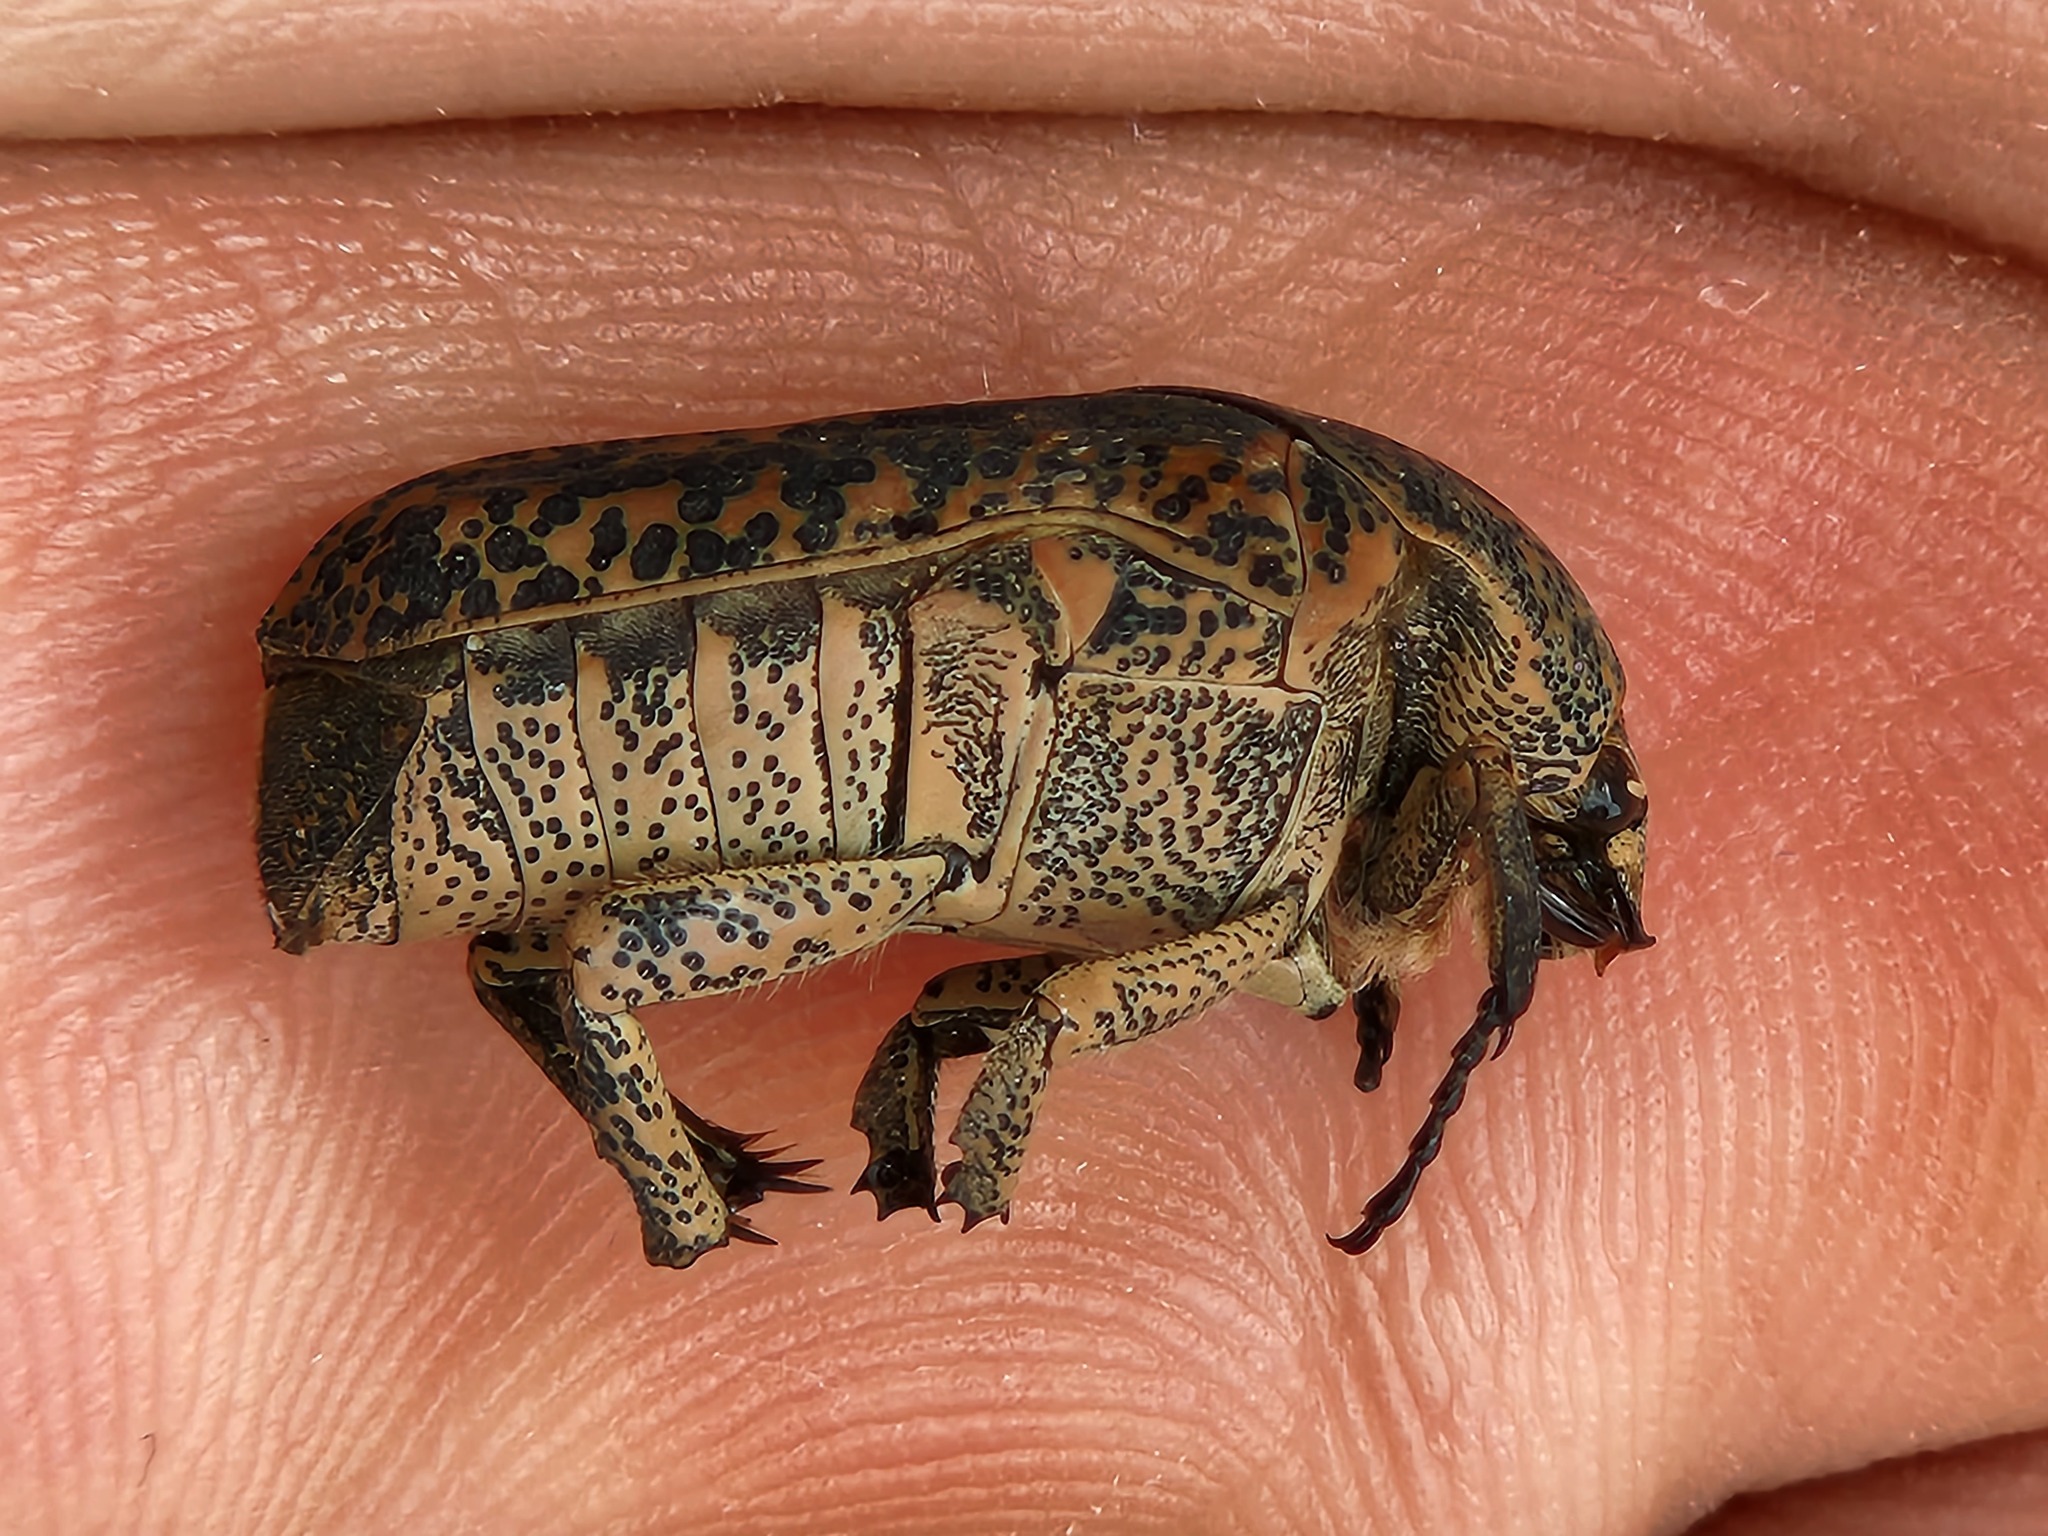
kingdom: Animalia
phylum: Arthropoda
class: Insecta
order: Coleoptera
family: Scarabaeidae
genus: Marmarina
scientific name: Marmarina insculpta
